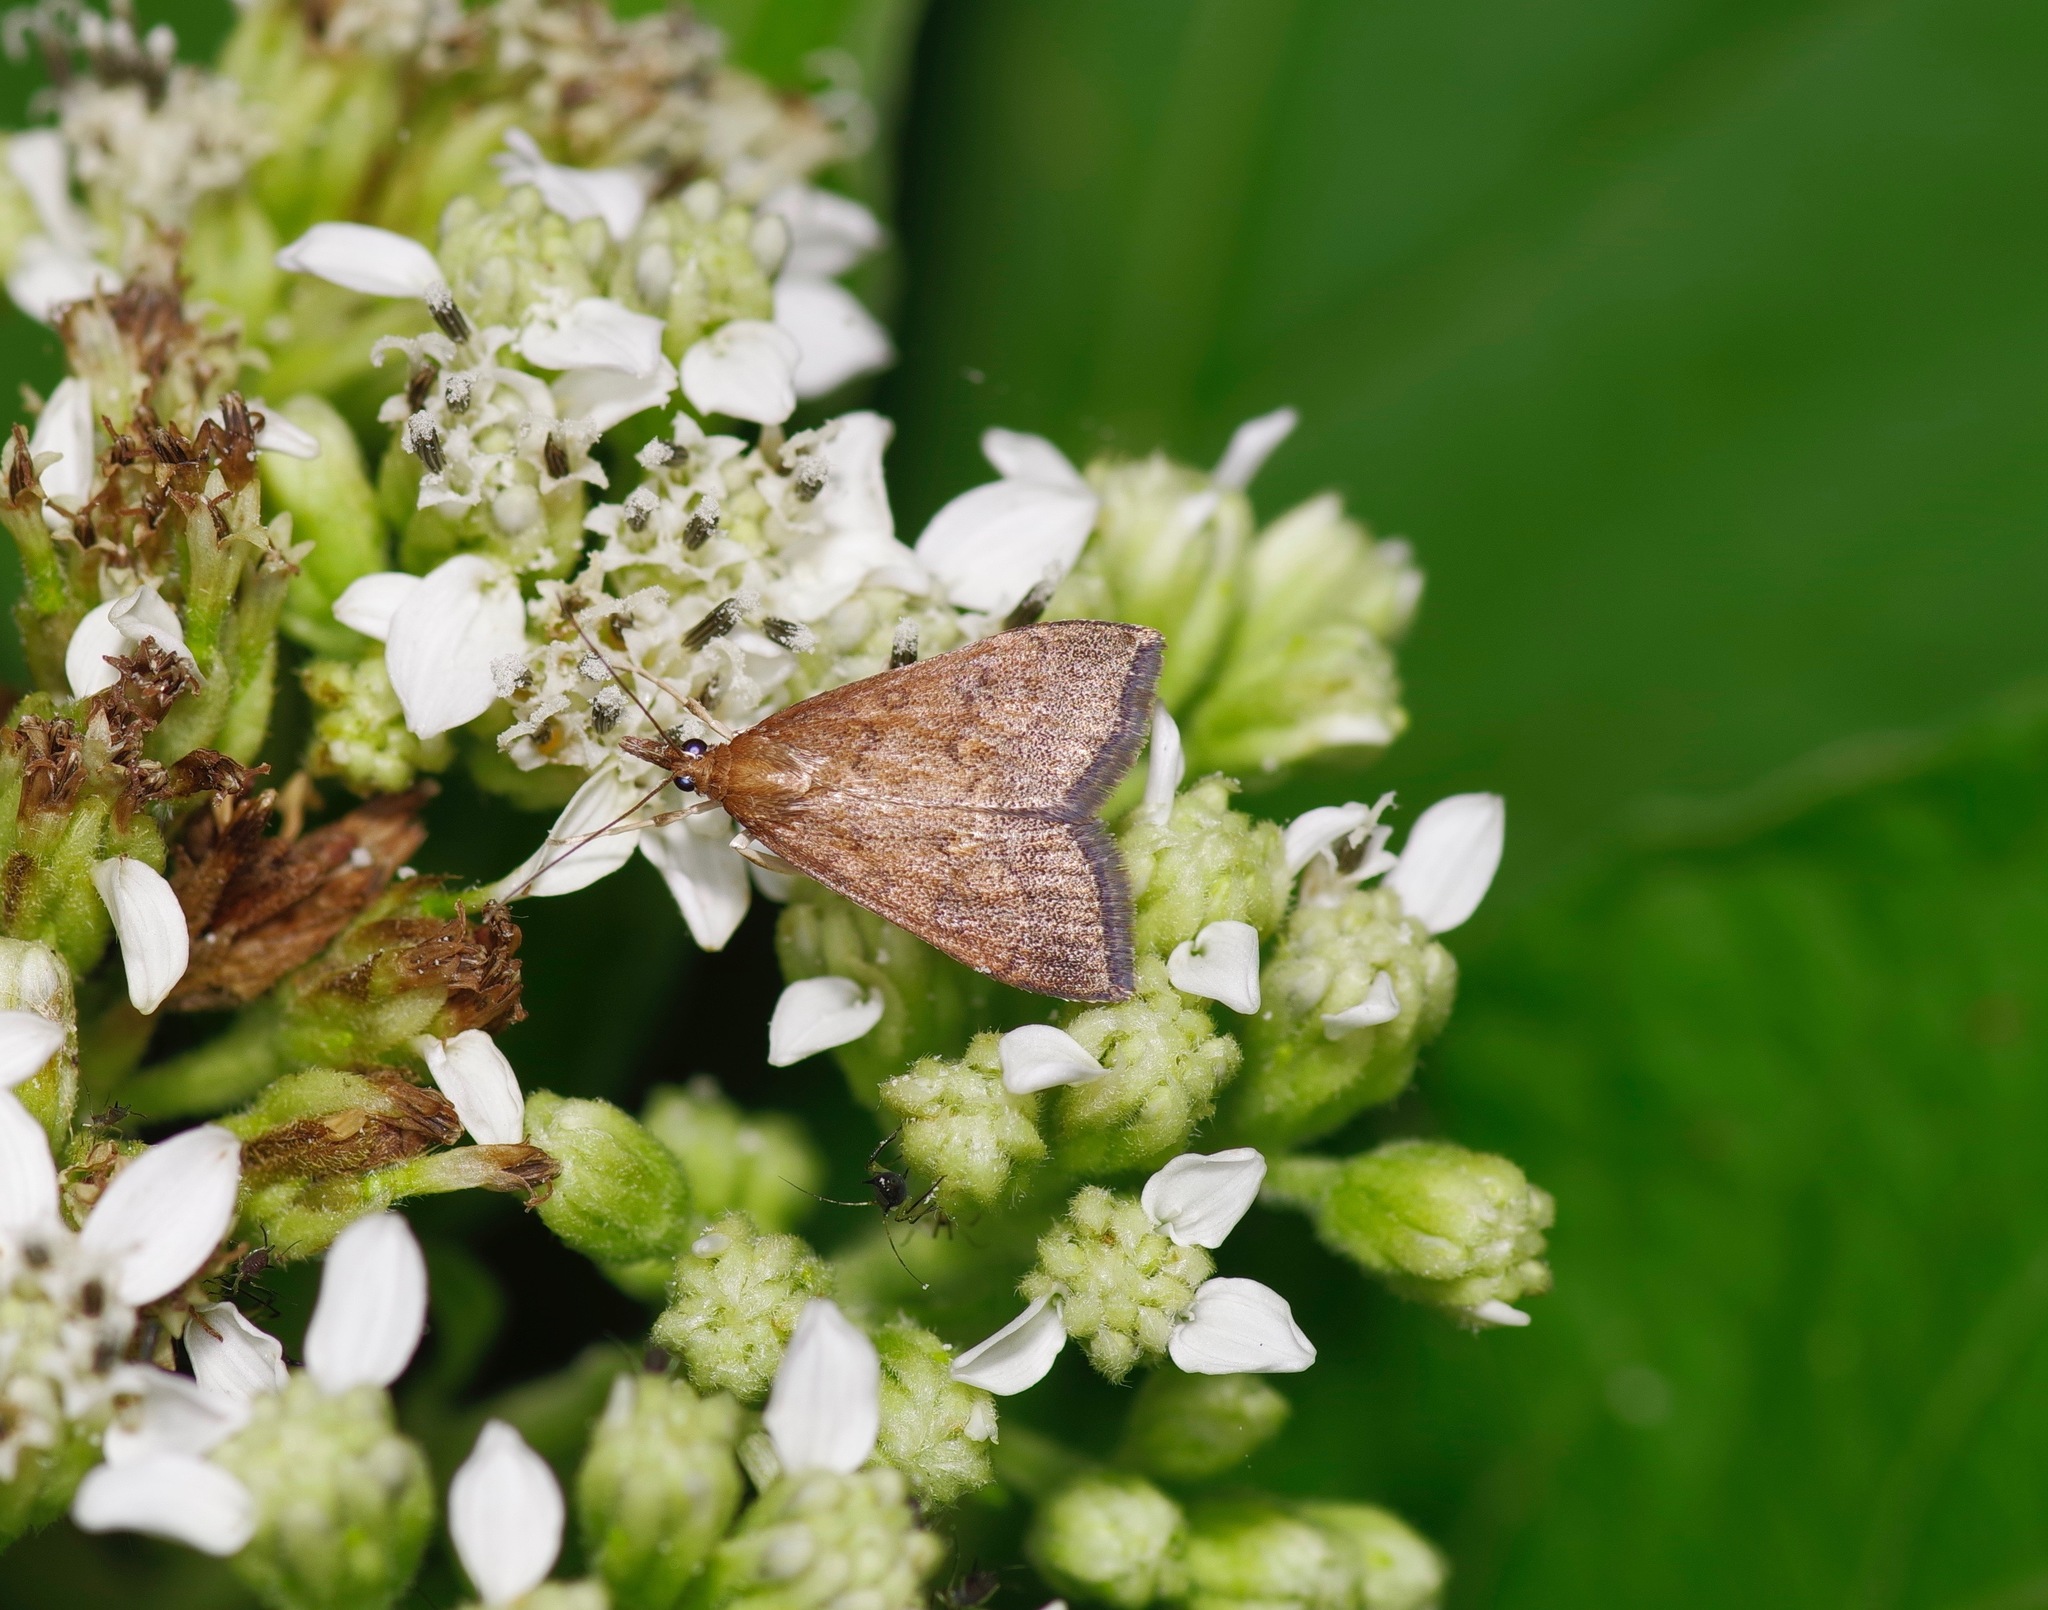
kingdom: Animalia
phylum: Arthropoda
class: Insecta
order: Lepidoptera
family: Crambidae
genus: Udea
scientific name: Udea rubigalis
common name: Celery leaftier moth
